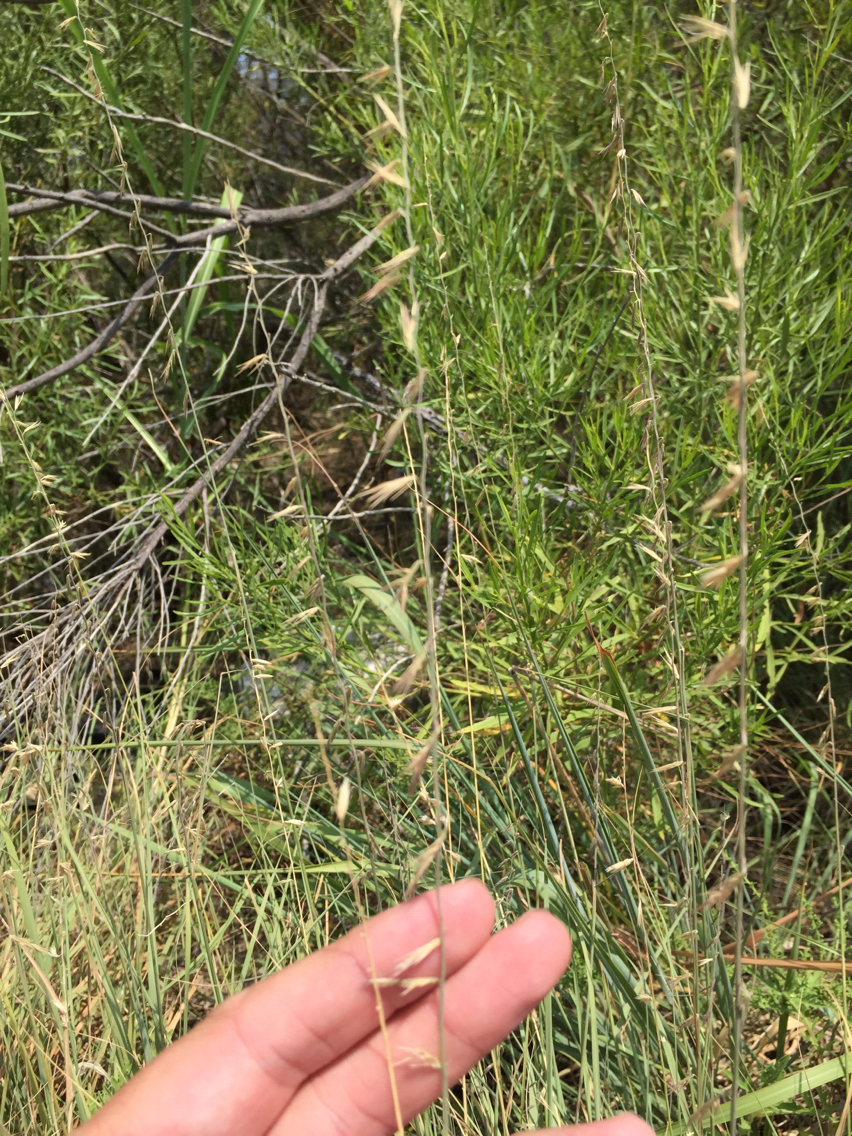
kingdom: Plantae
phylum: Tracheophyta
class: Liliopsida
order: Poales
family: Poaceae
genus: Bouteloua
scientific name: Bouteloua curtipendula
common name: Side-oats grama
